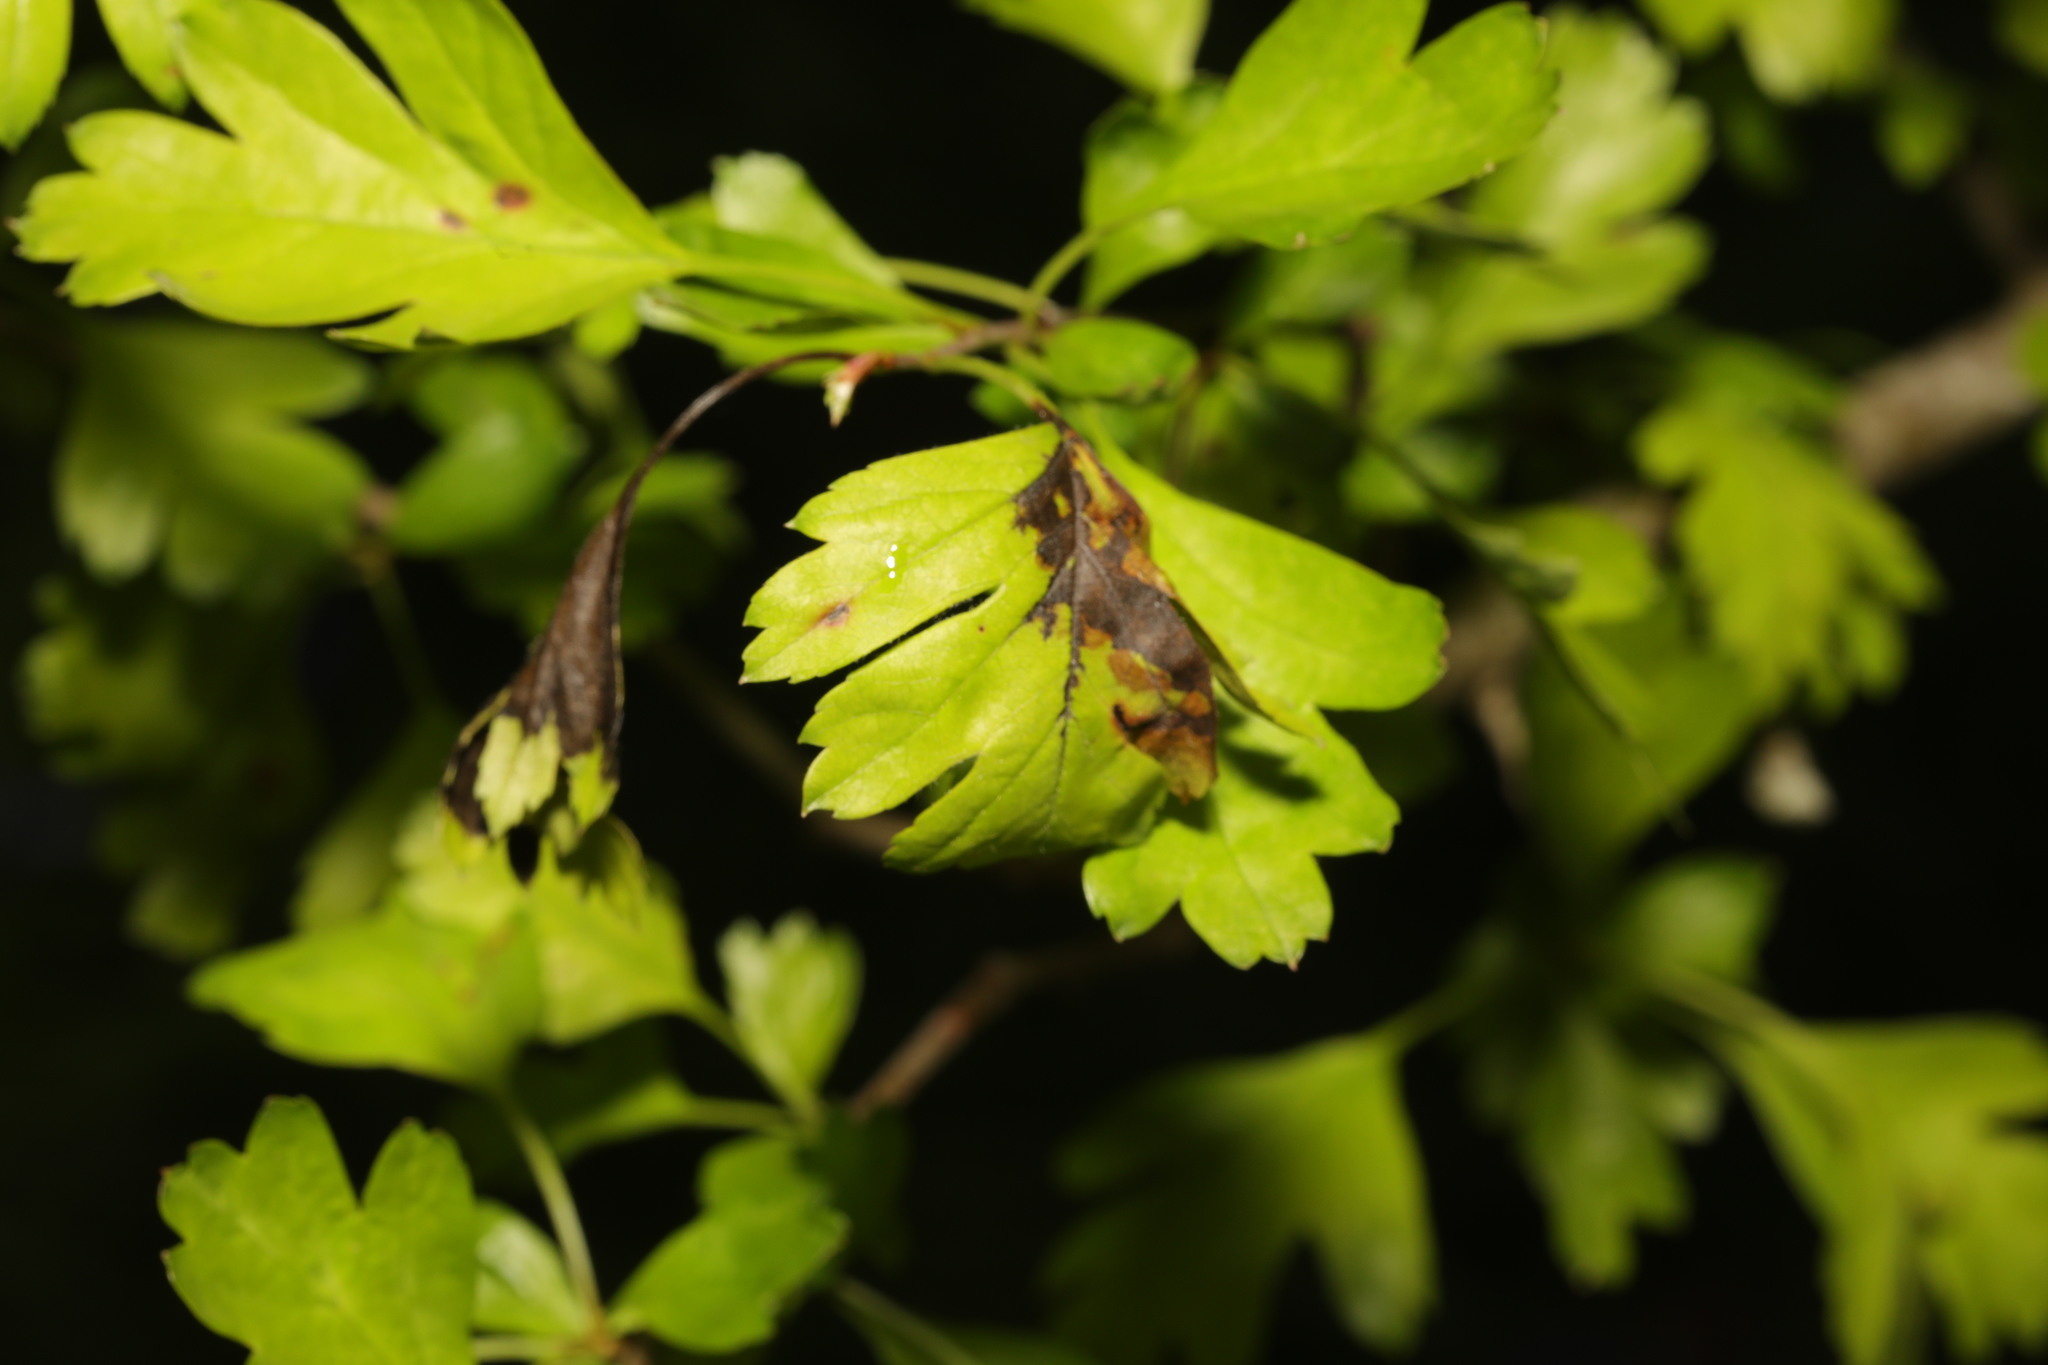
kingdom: Plantae
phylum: Tracheophyta
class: Magnoliopsida
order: Rosales
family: Rosaceae
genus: Crataegus
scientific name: Crataegus monogyna
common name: Hawthorn
